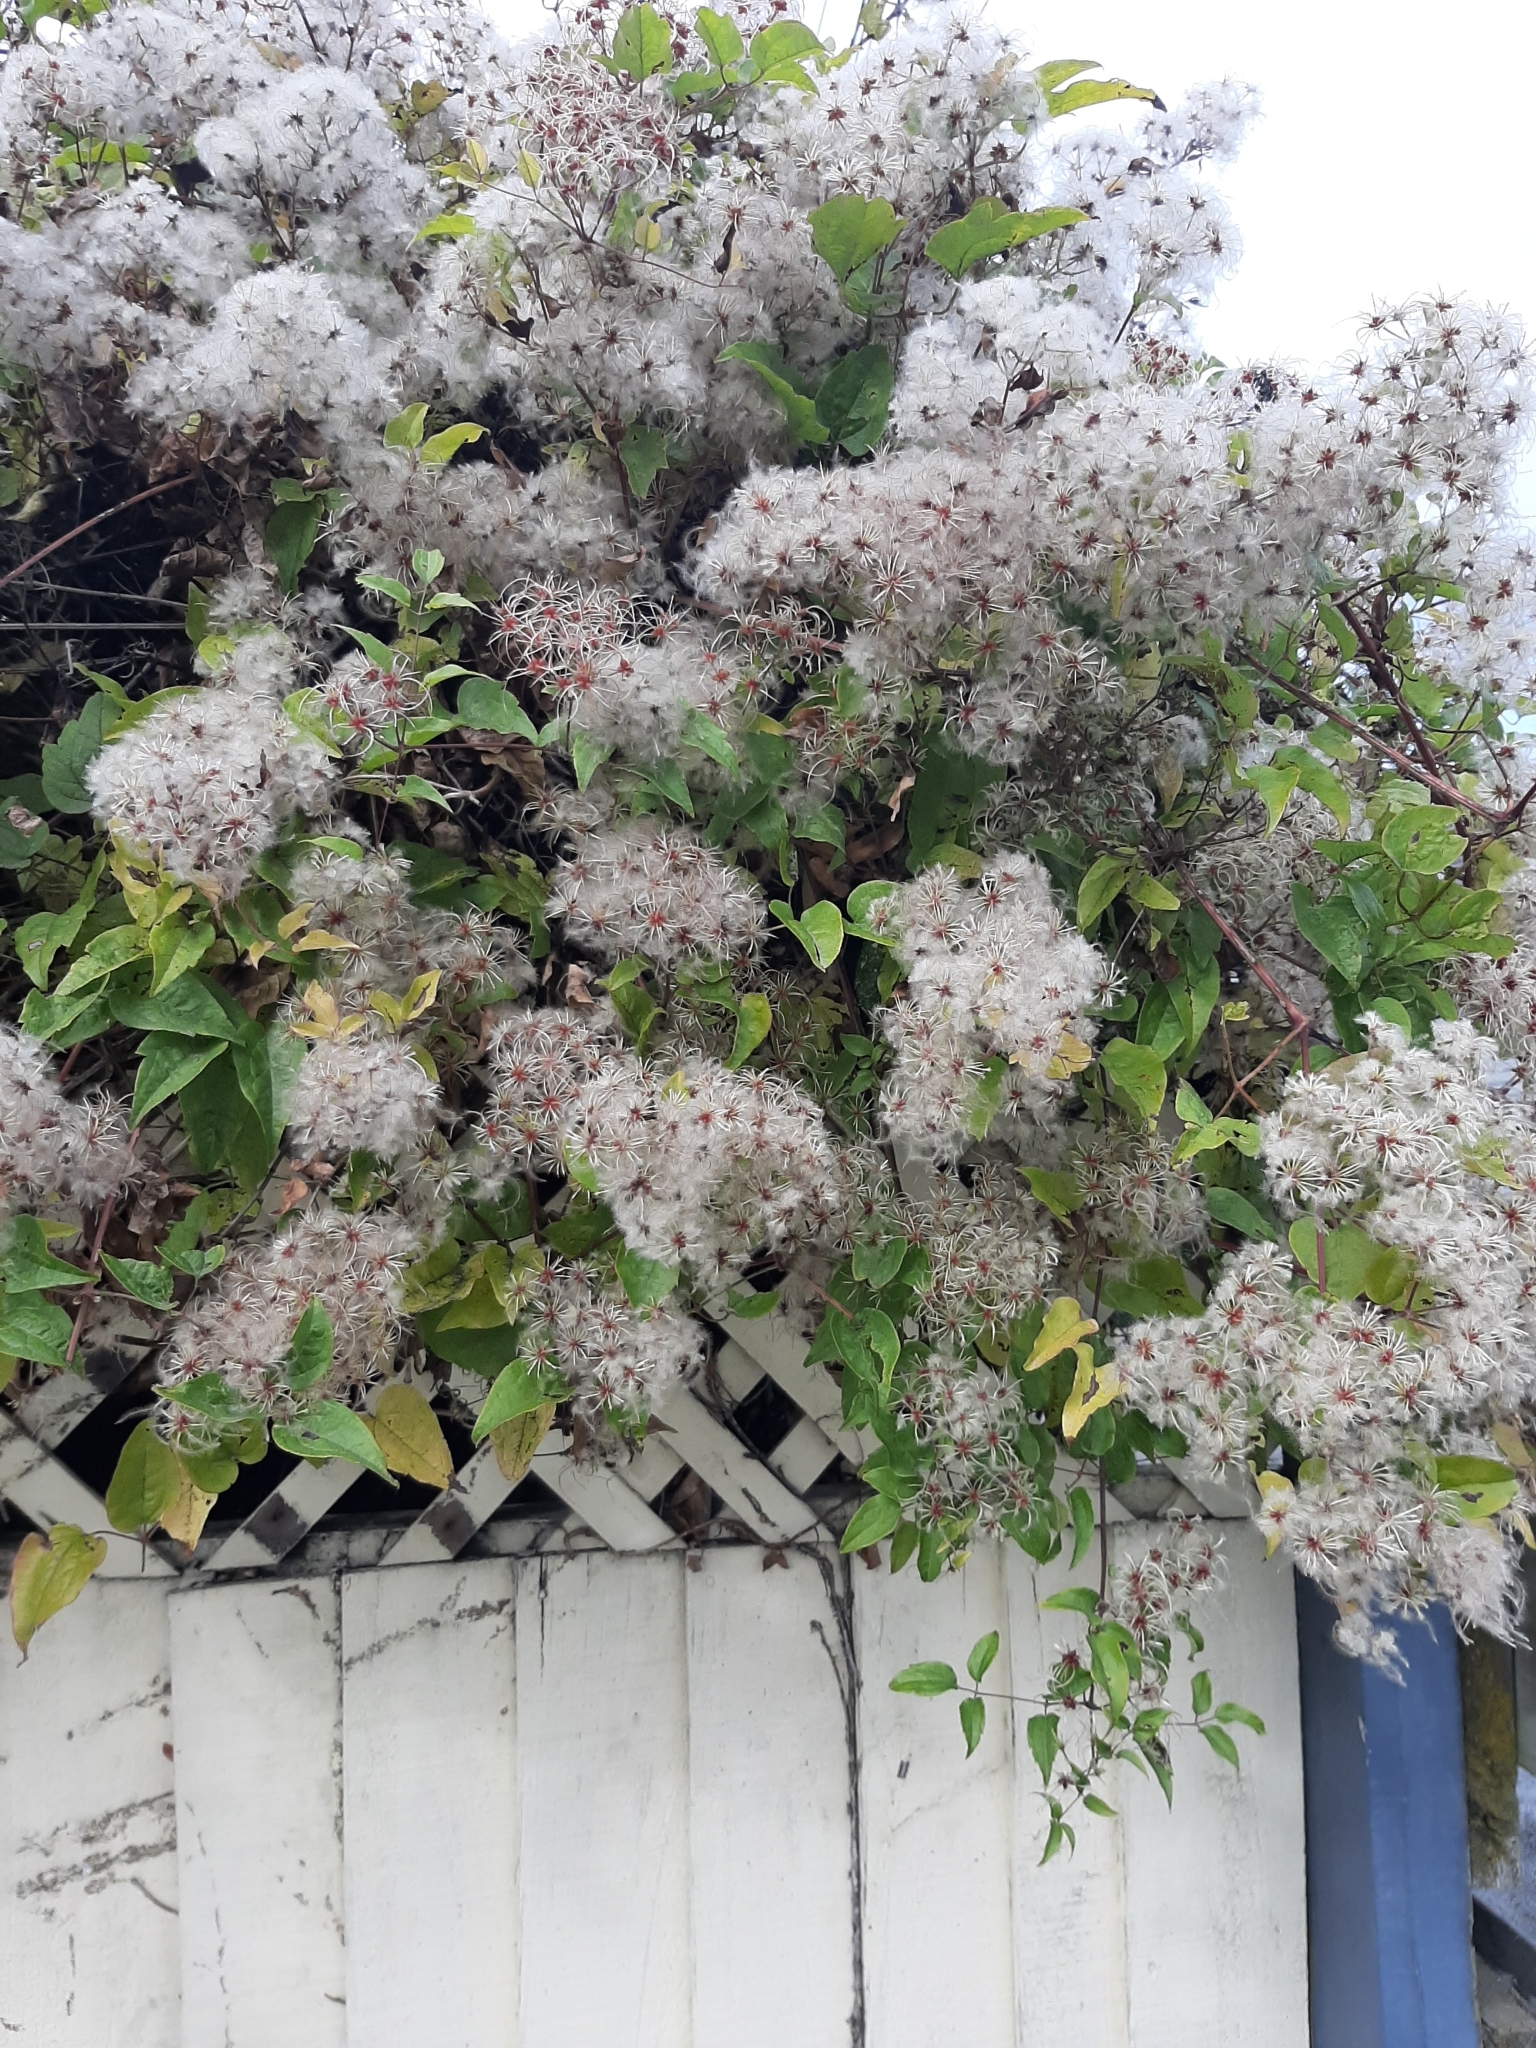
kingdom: Plantae
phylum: Tracheophyta
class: Magnoliopsida
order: Ranunculales
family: Ranunculaceae
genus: Clematis
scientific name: Clematis vitalba
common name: Evergreen clematis
